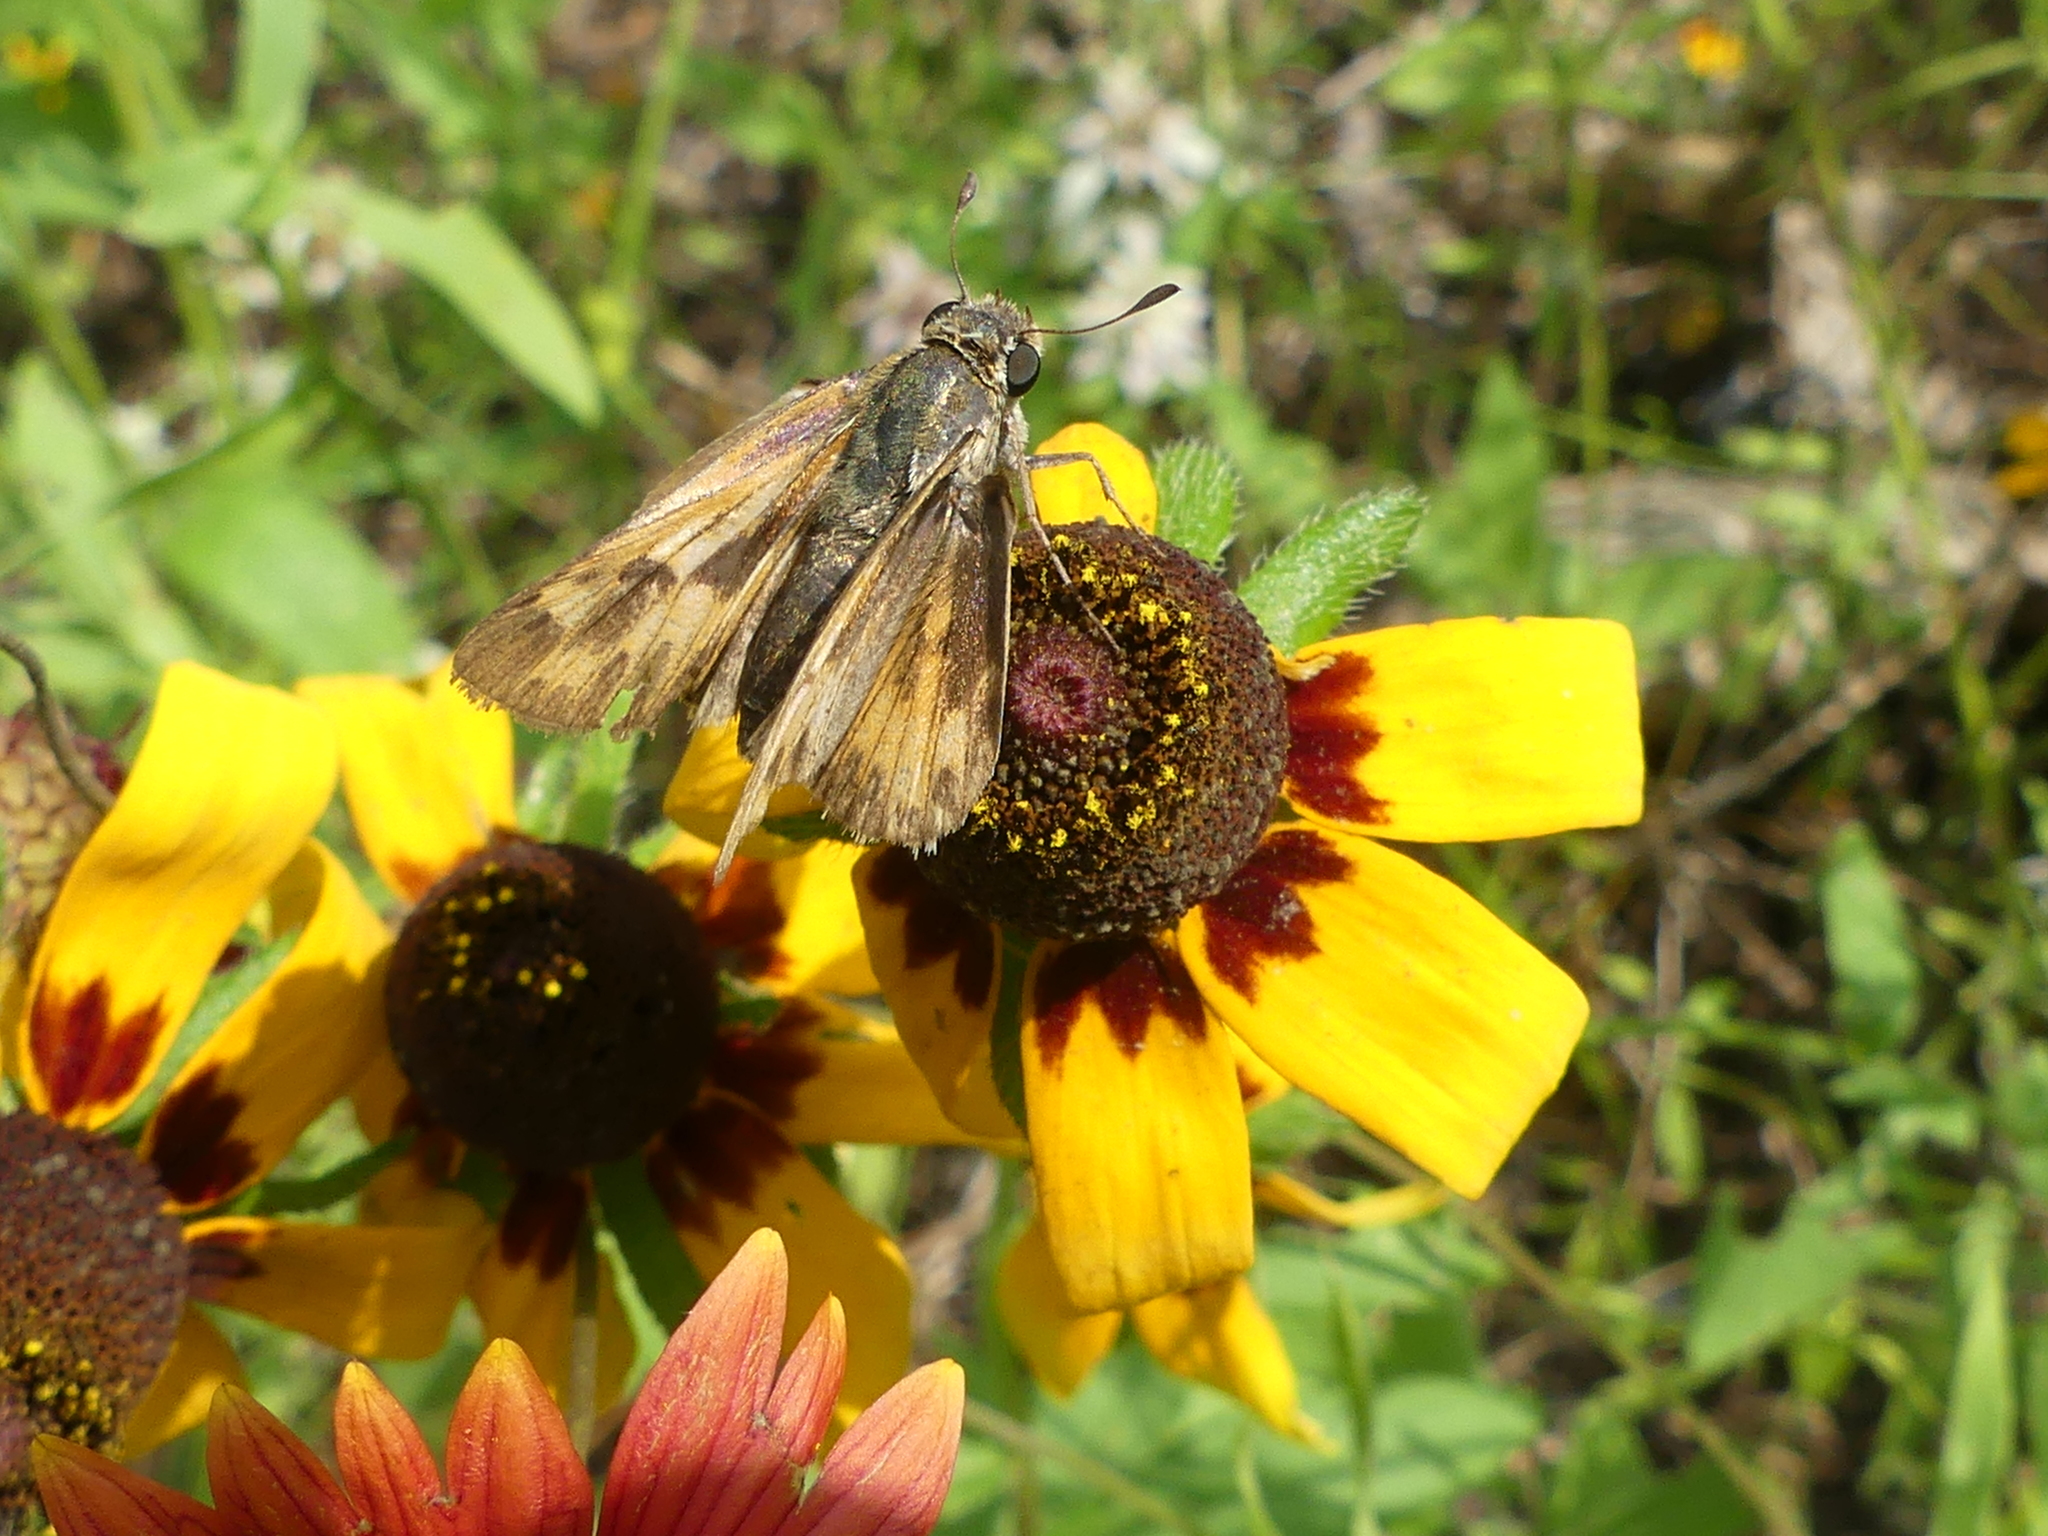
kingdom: Animalia
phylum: Arthropoda
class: Insecta
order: Lepidoptera
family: Hesperiidae
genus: Atalopedes
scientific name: Atalopedes
